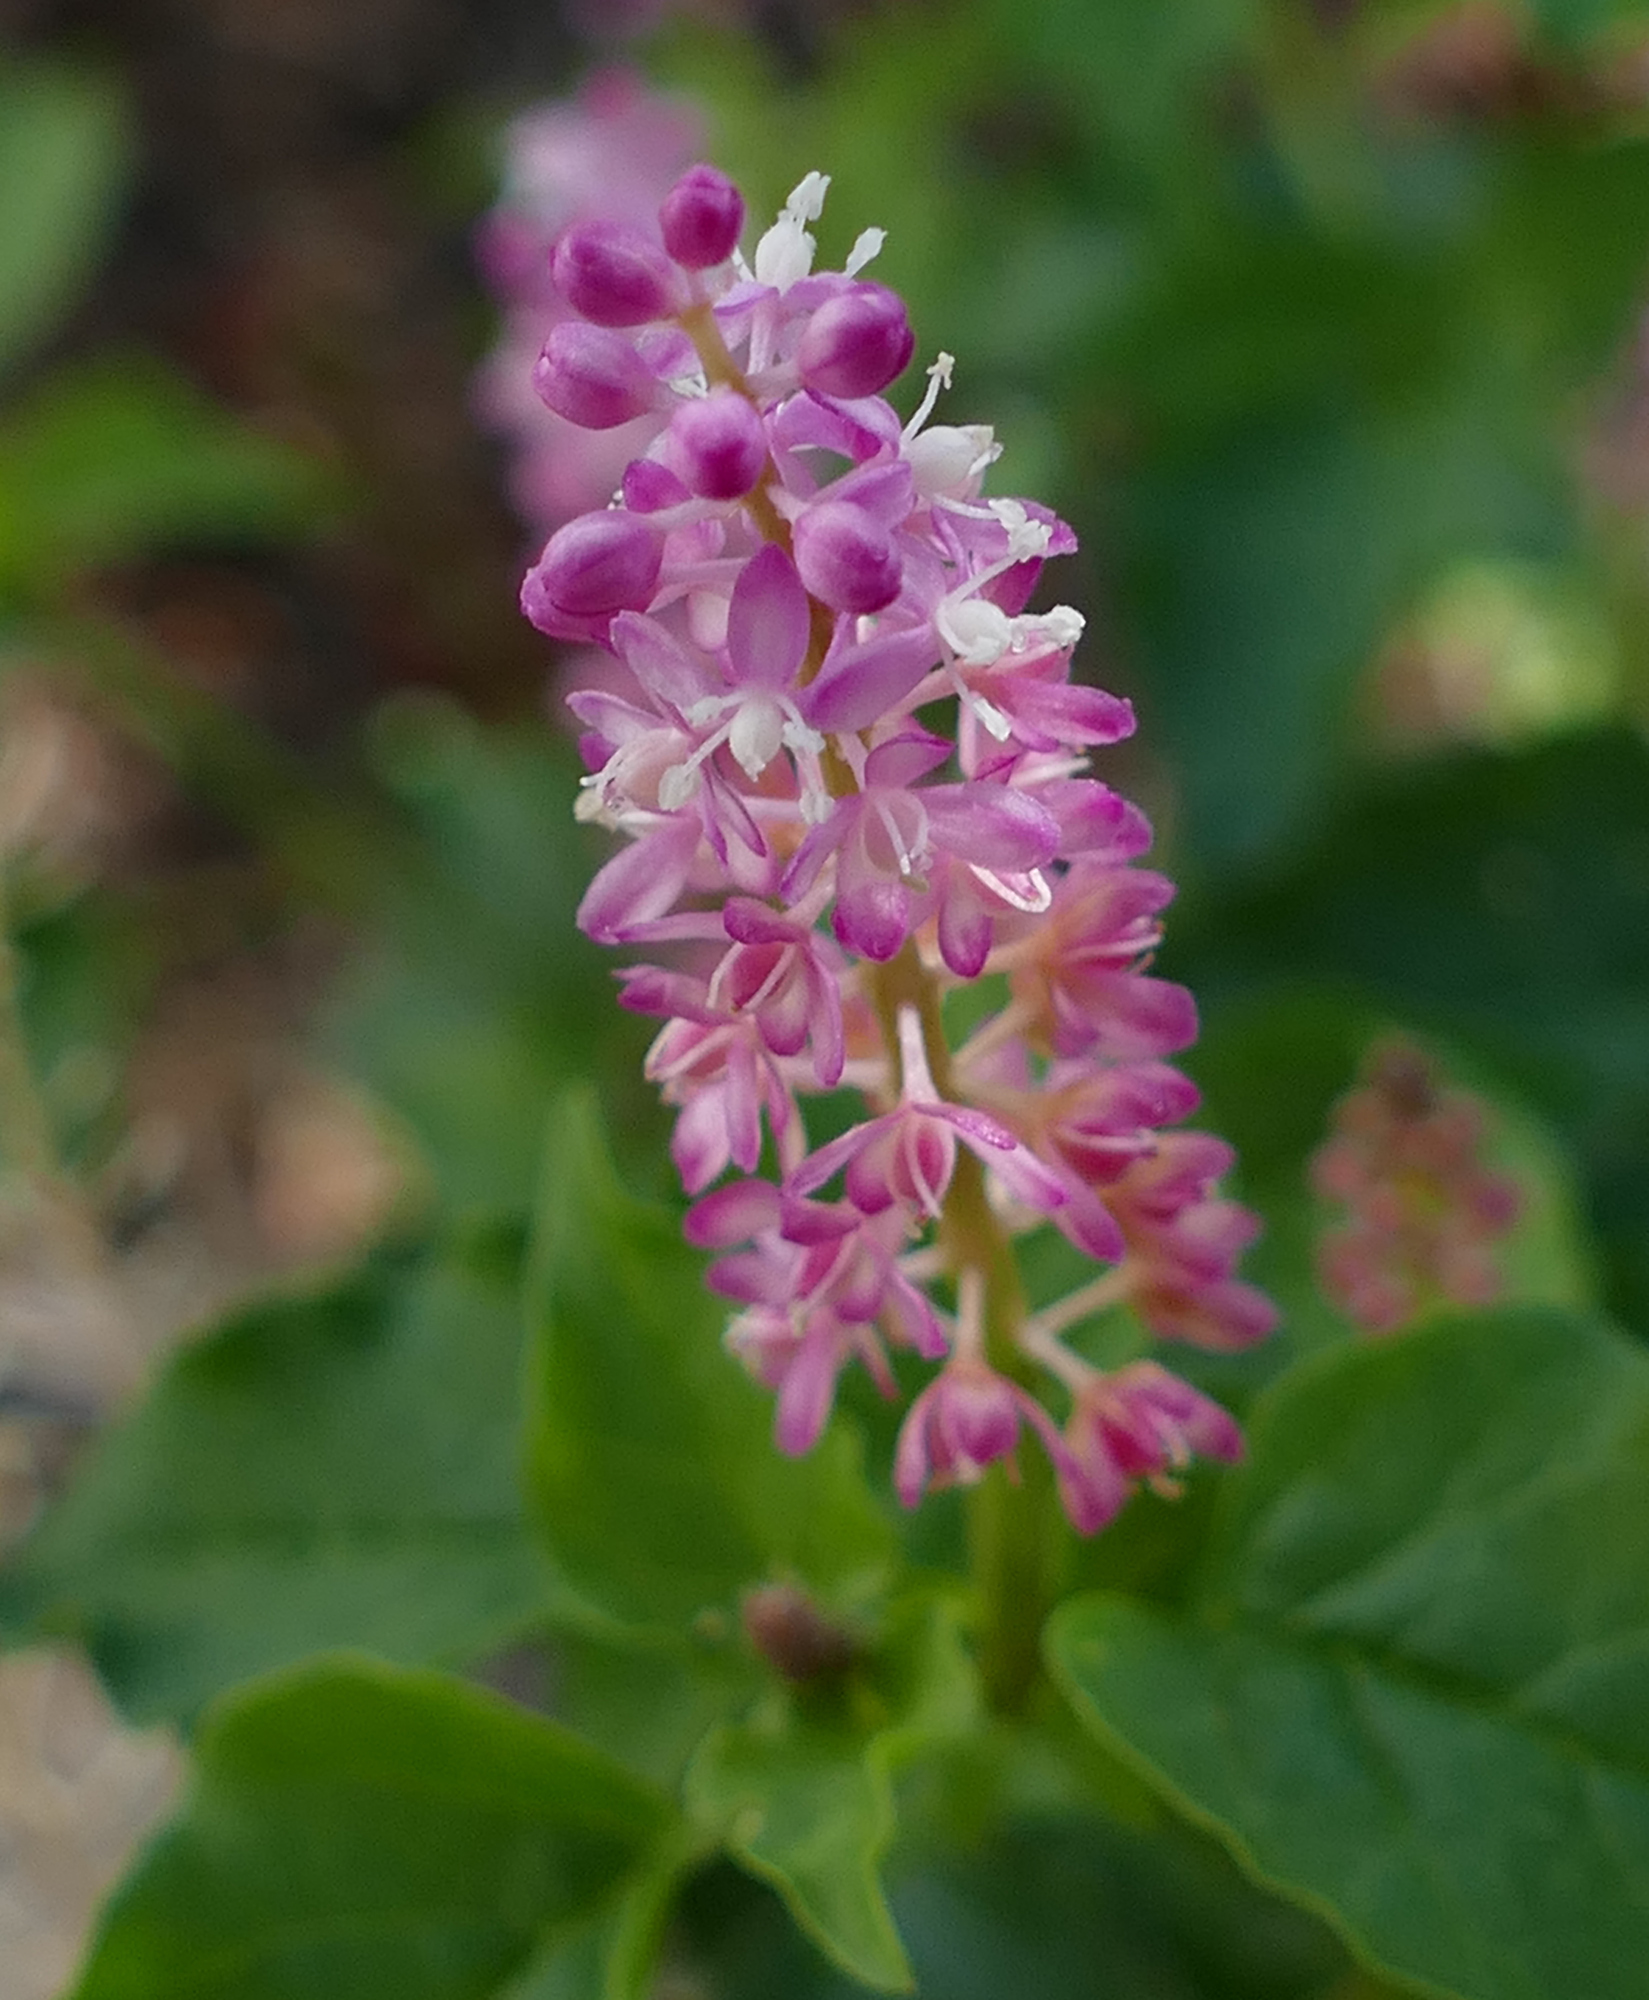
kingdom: Plantae
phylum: Tracheophyta
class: Magnoliopsida
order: Caryophyllales
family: Phytolaccaceae
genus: Rivina
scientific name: Rivina humilis
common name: Rougeplant
